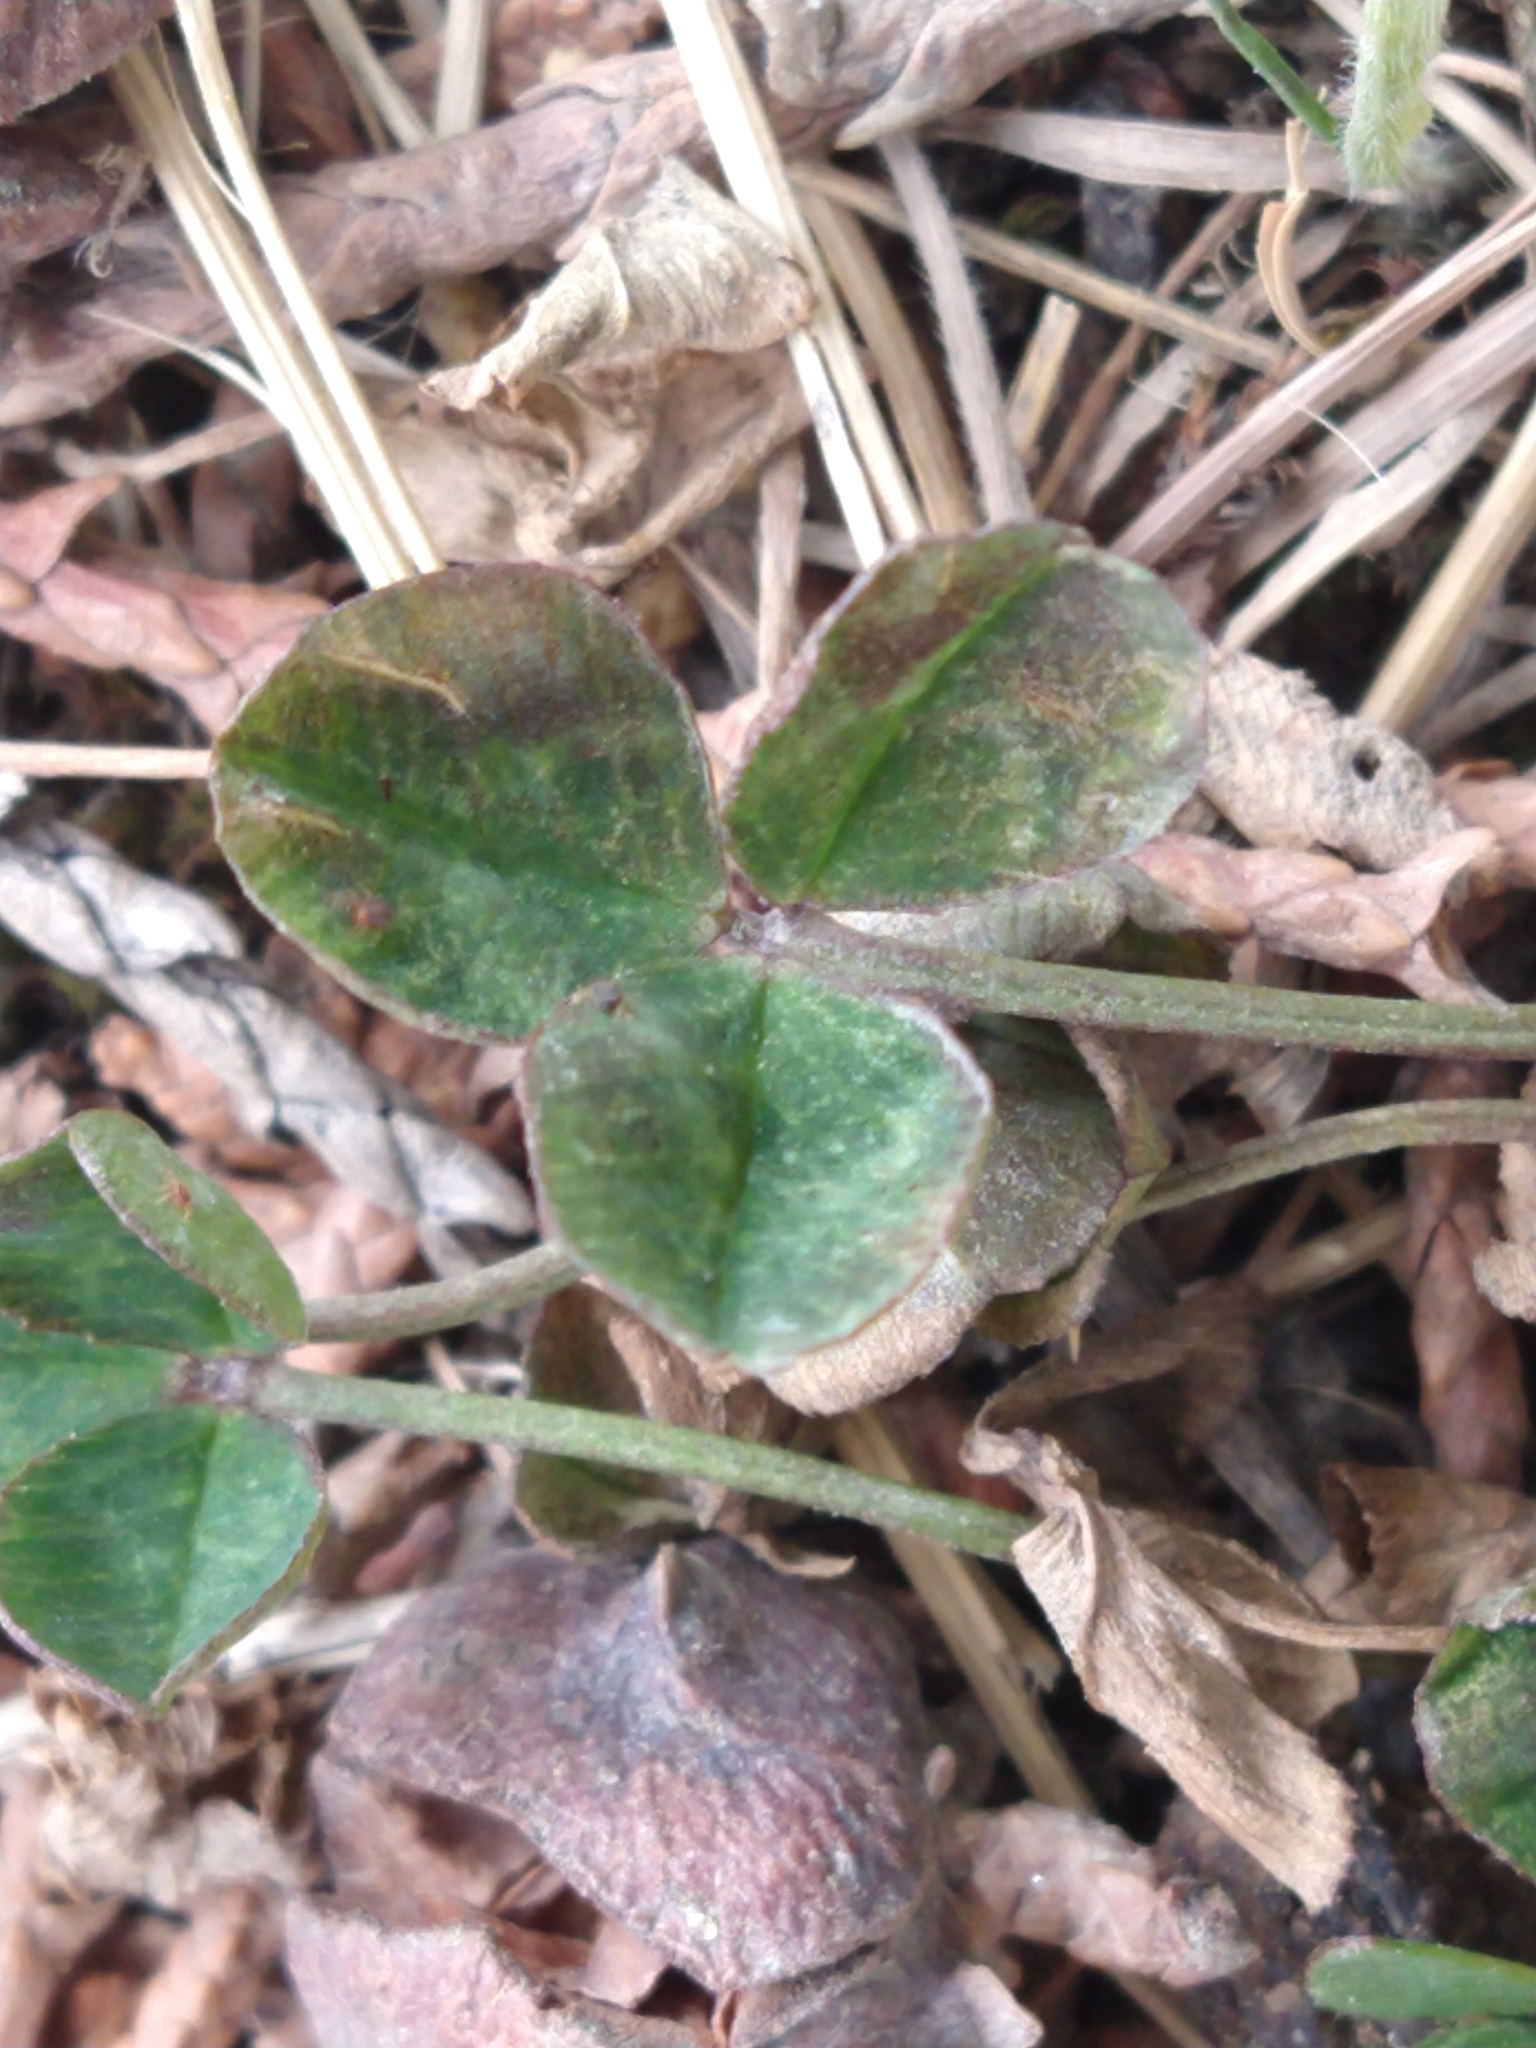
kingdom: Plantae
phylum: Tracheophyta
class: Magnoliopsida
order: Fabales
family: Fabaceae
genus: Trifolium
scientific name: Trifolium repens
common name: White clover
